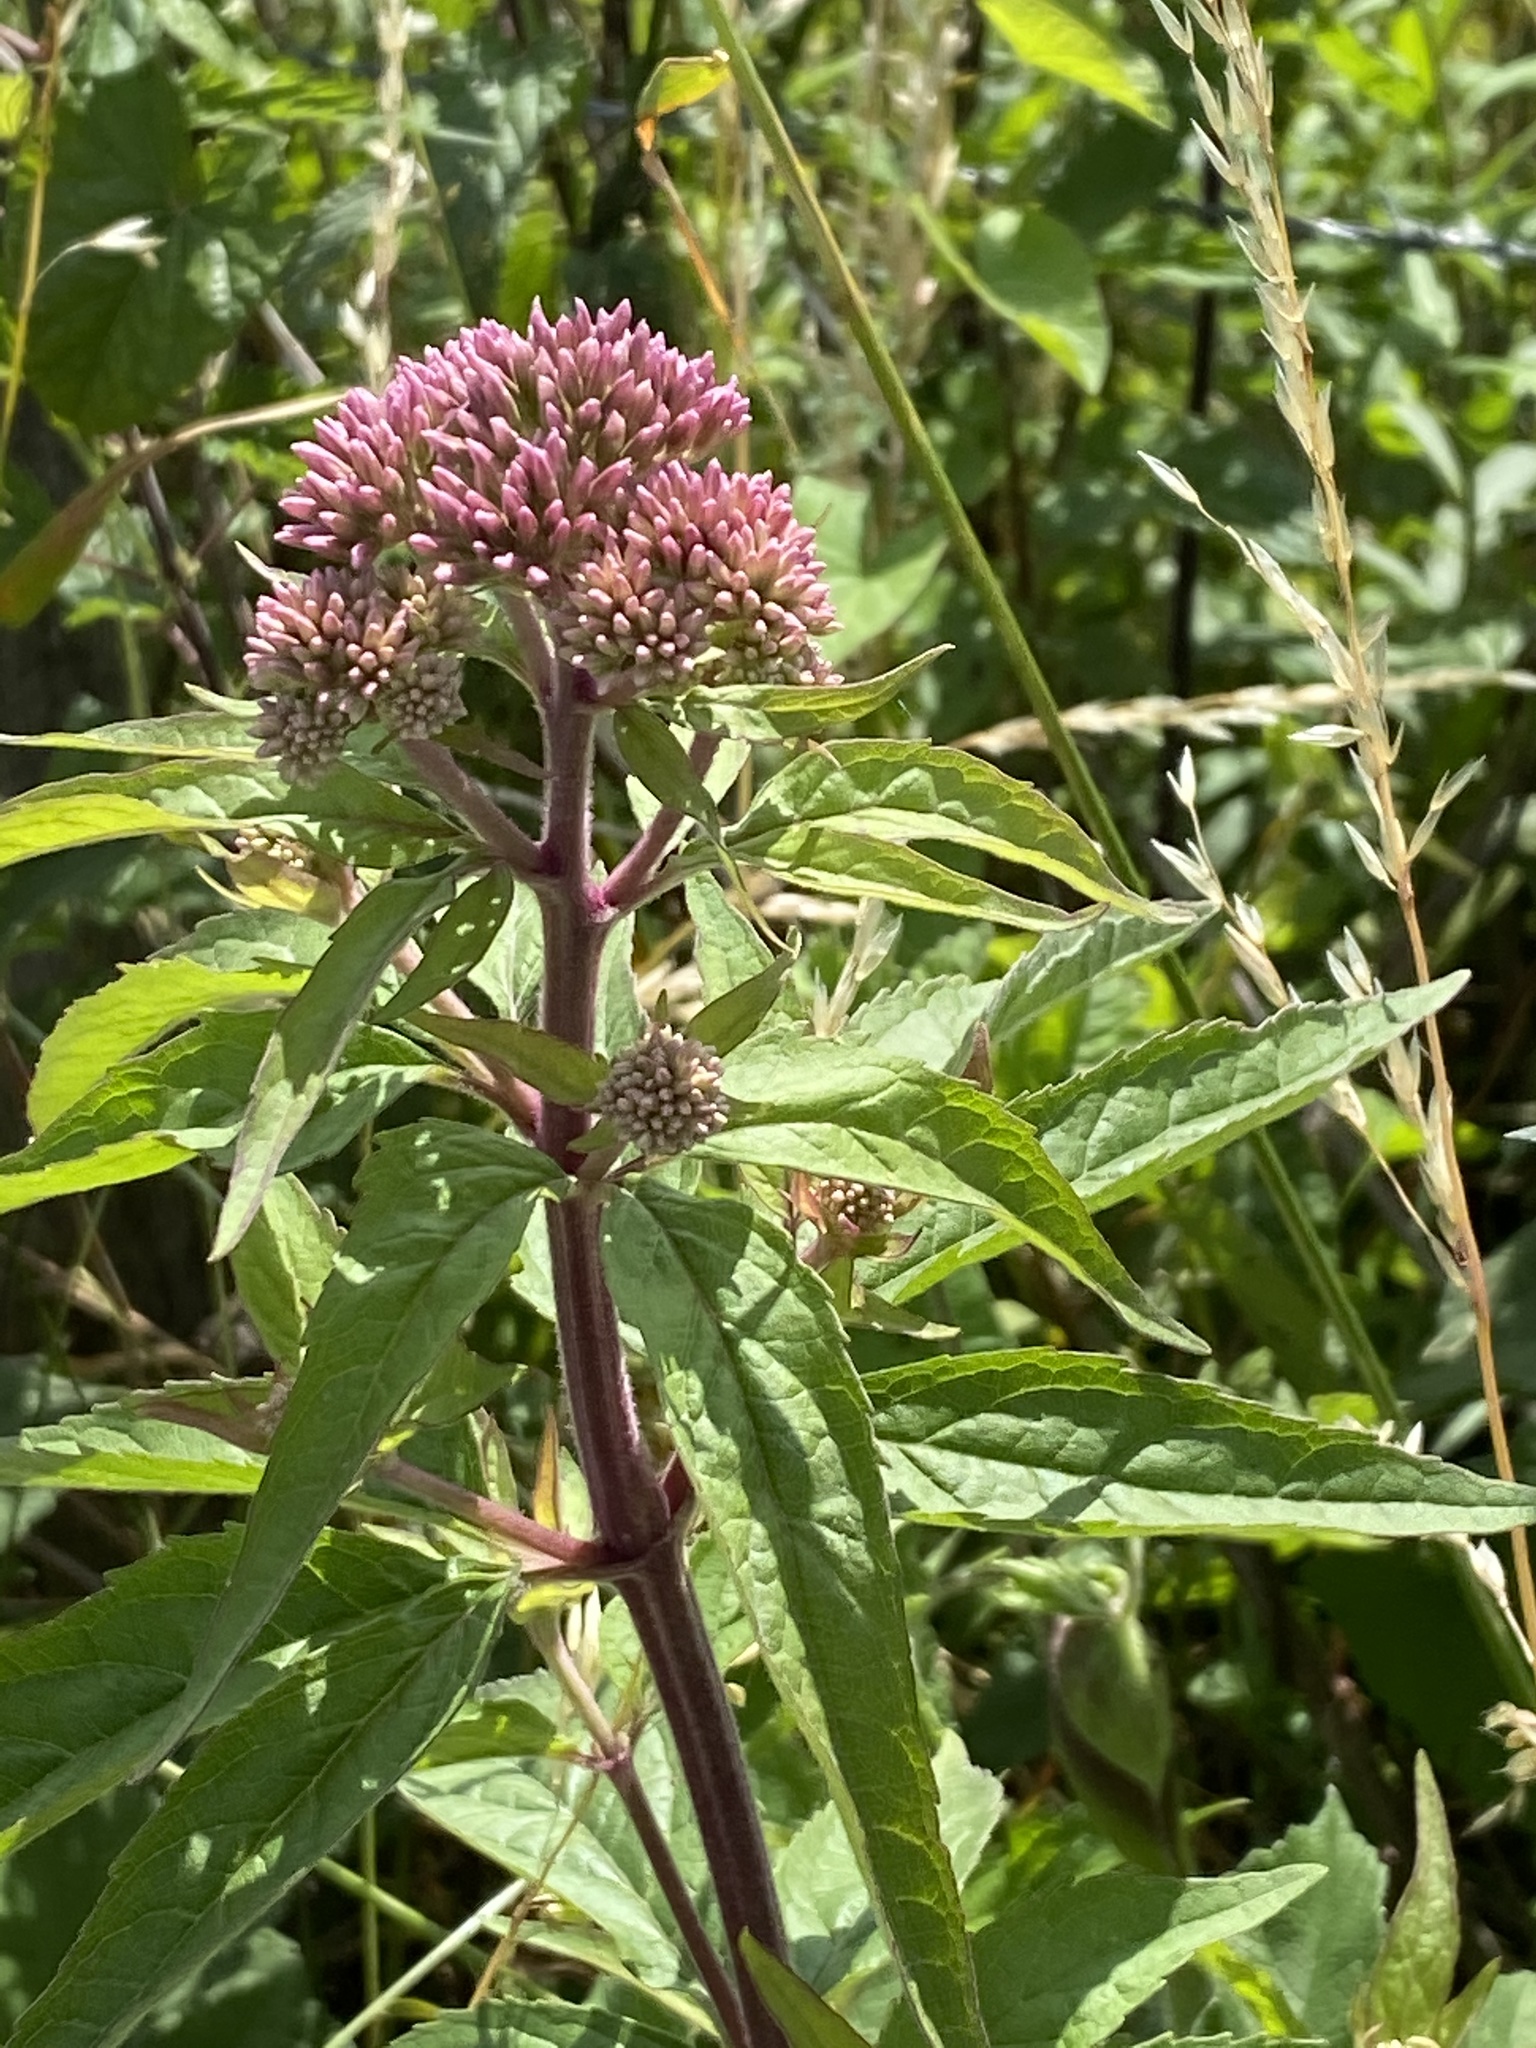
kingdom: Plantae
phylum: Tracheophyta
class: Magnoliopsida
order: Asterales
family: Asteraceae
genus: Eupatorium
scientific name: Eupatorium cannabinum
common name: Hemp-agrimony
